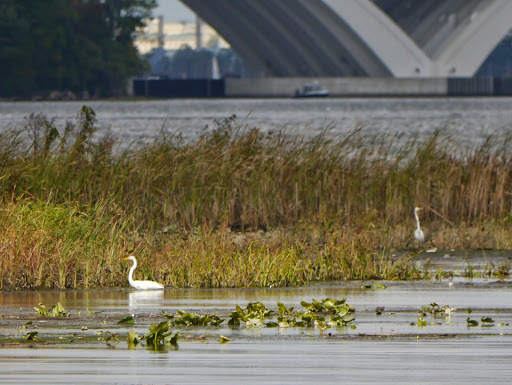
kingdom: Animalia
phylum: Chordata
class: Aves
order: Pelecaniformes
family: Ardeidae
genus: Ardea
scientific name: Ardea alba
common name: Great egret
